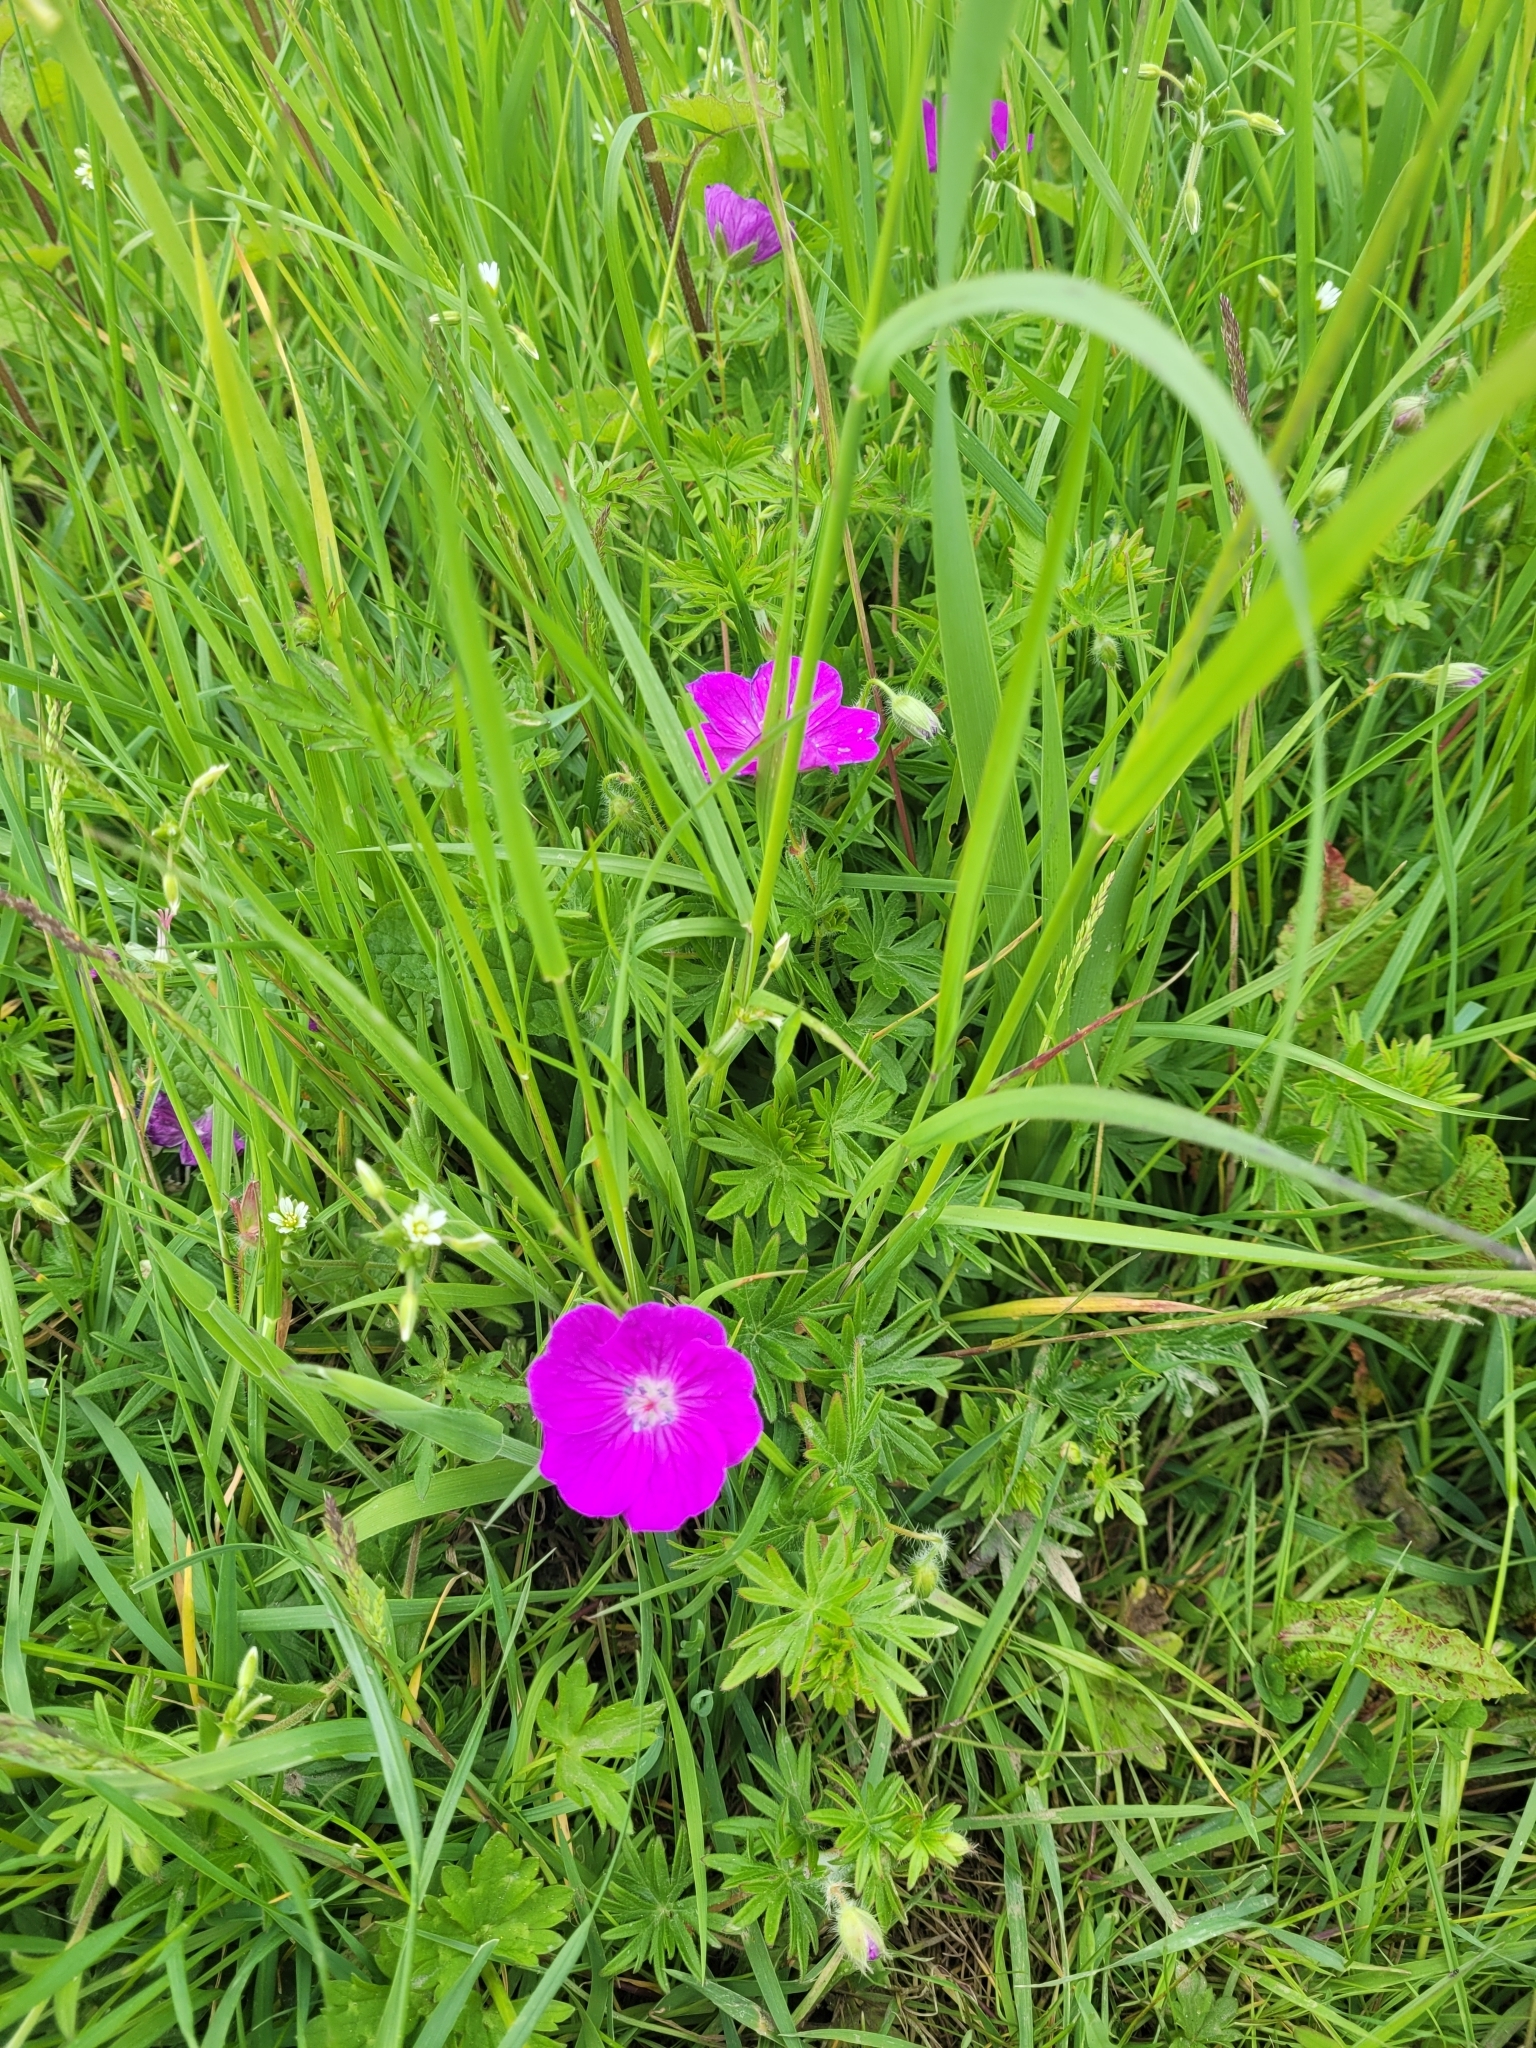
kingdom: Plantae
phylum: Tracheophyta
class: Magnoliopsida
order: Geraniales
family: Geraniaceae
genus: Geranium
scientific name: Geranium sanguineum
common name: Bloody crane's-bill
